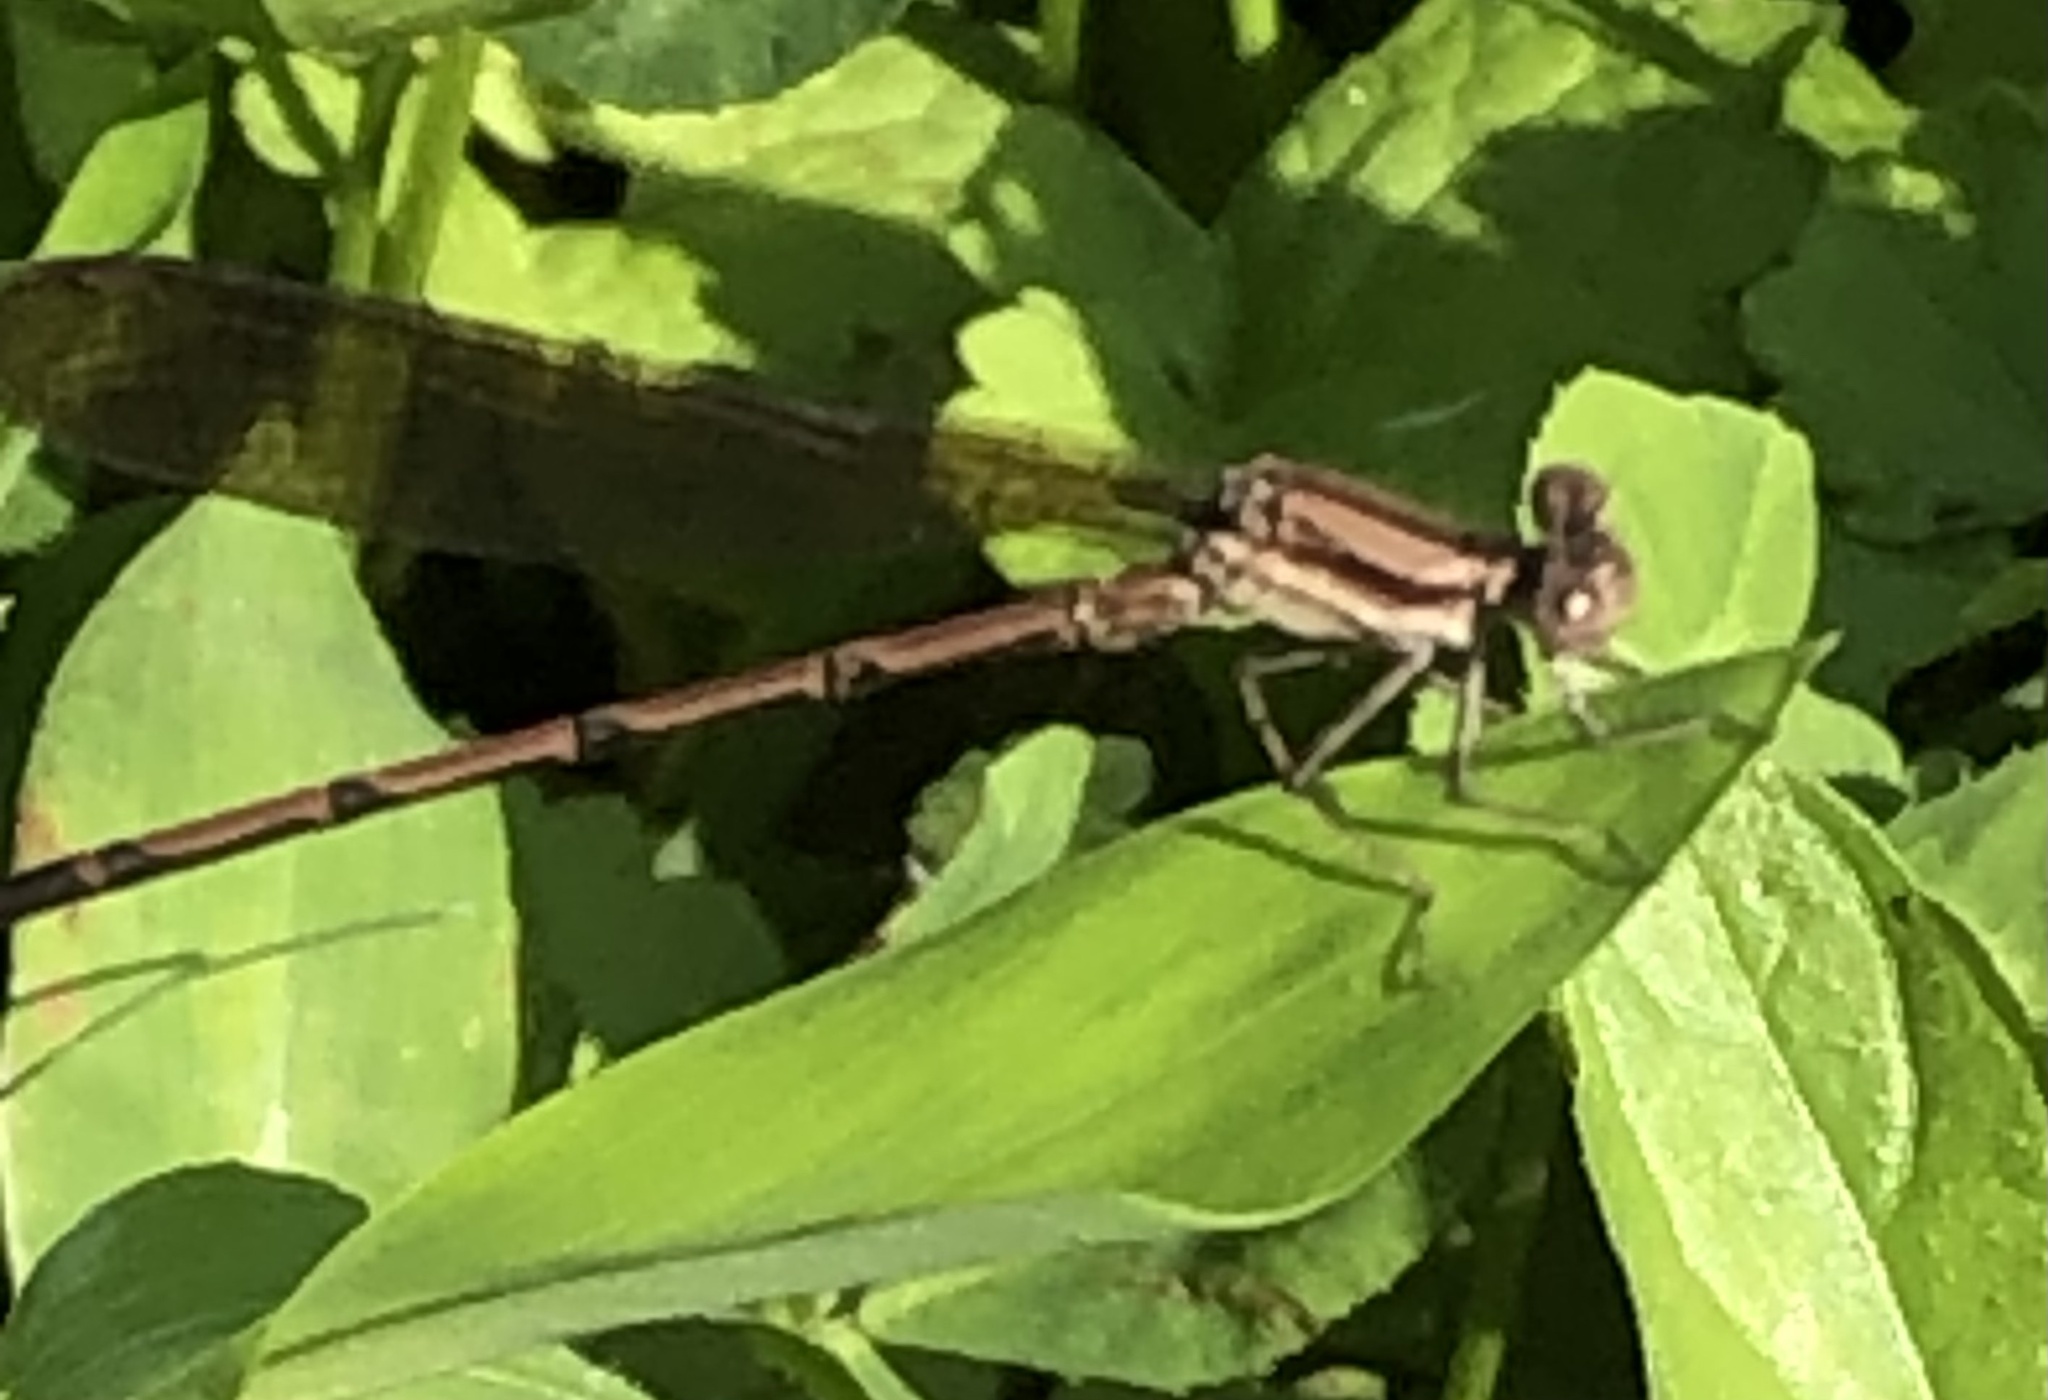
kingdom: Animalia
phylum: Arthropoda
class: Insecta
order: Odonata
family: Coenagrionidae
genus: Argia
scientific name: Argia fumipennis
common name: Variable dancer
